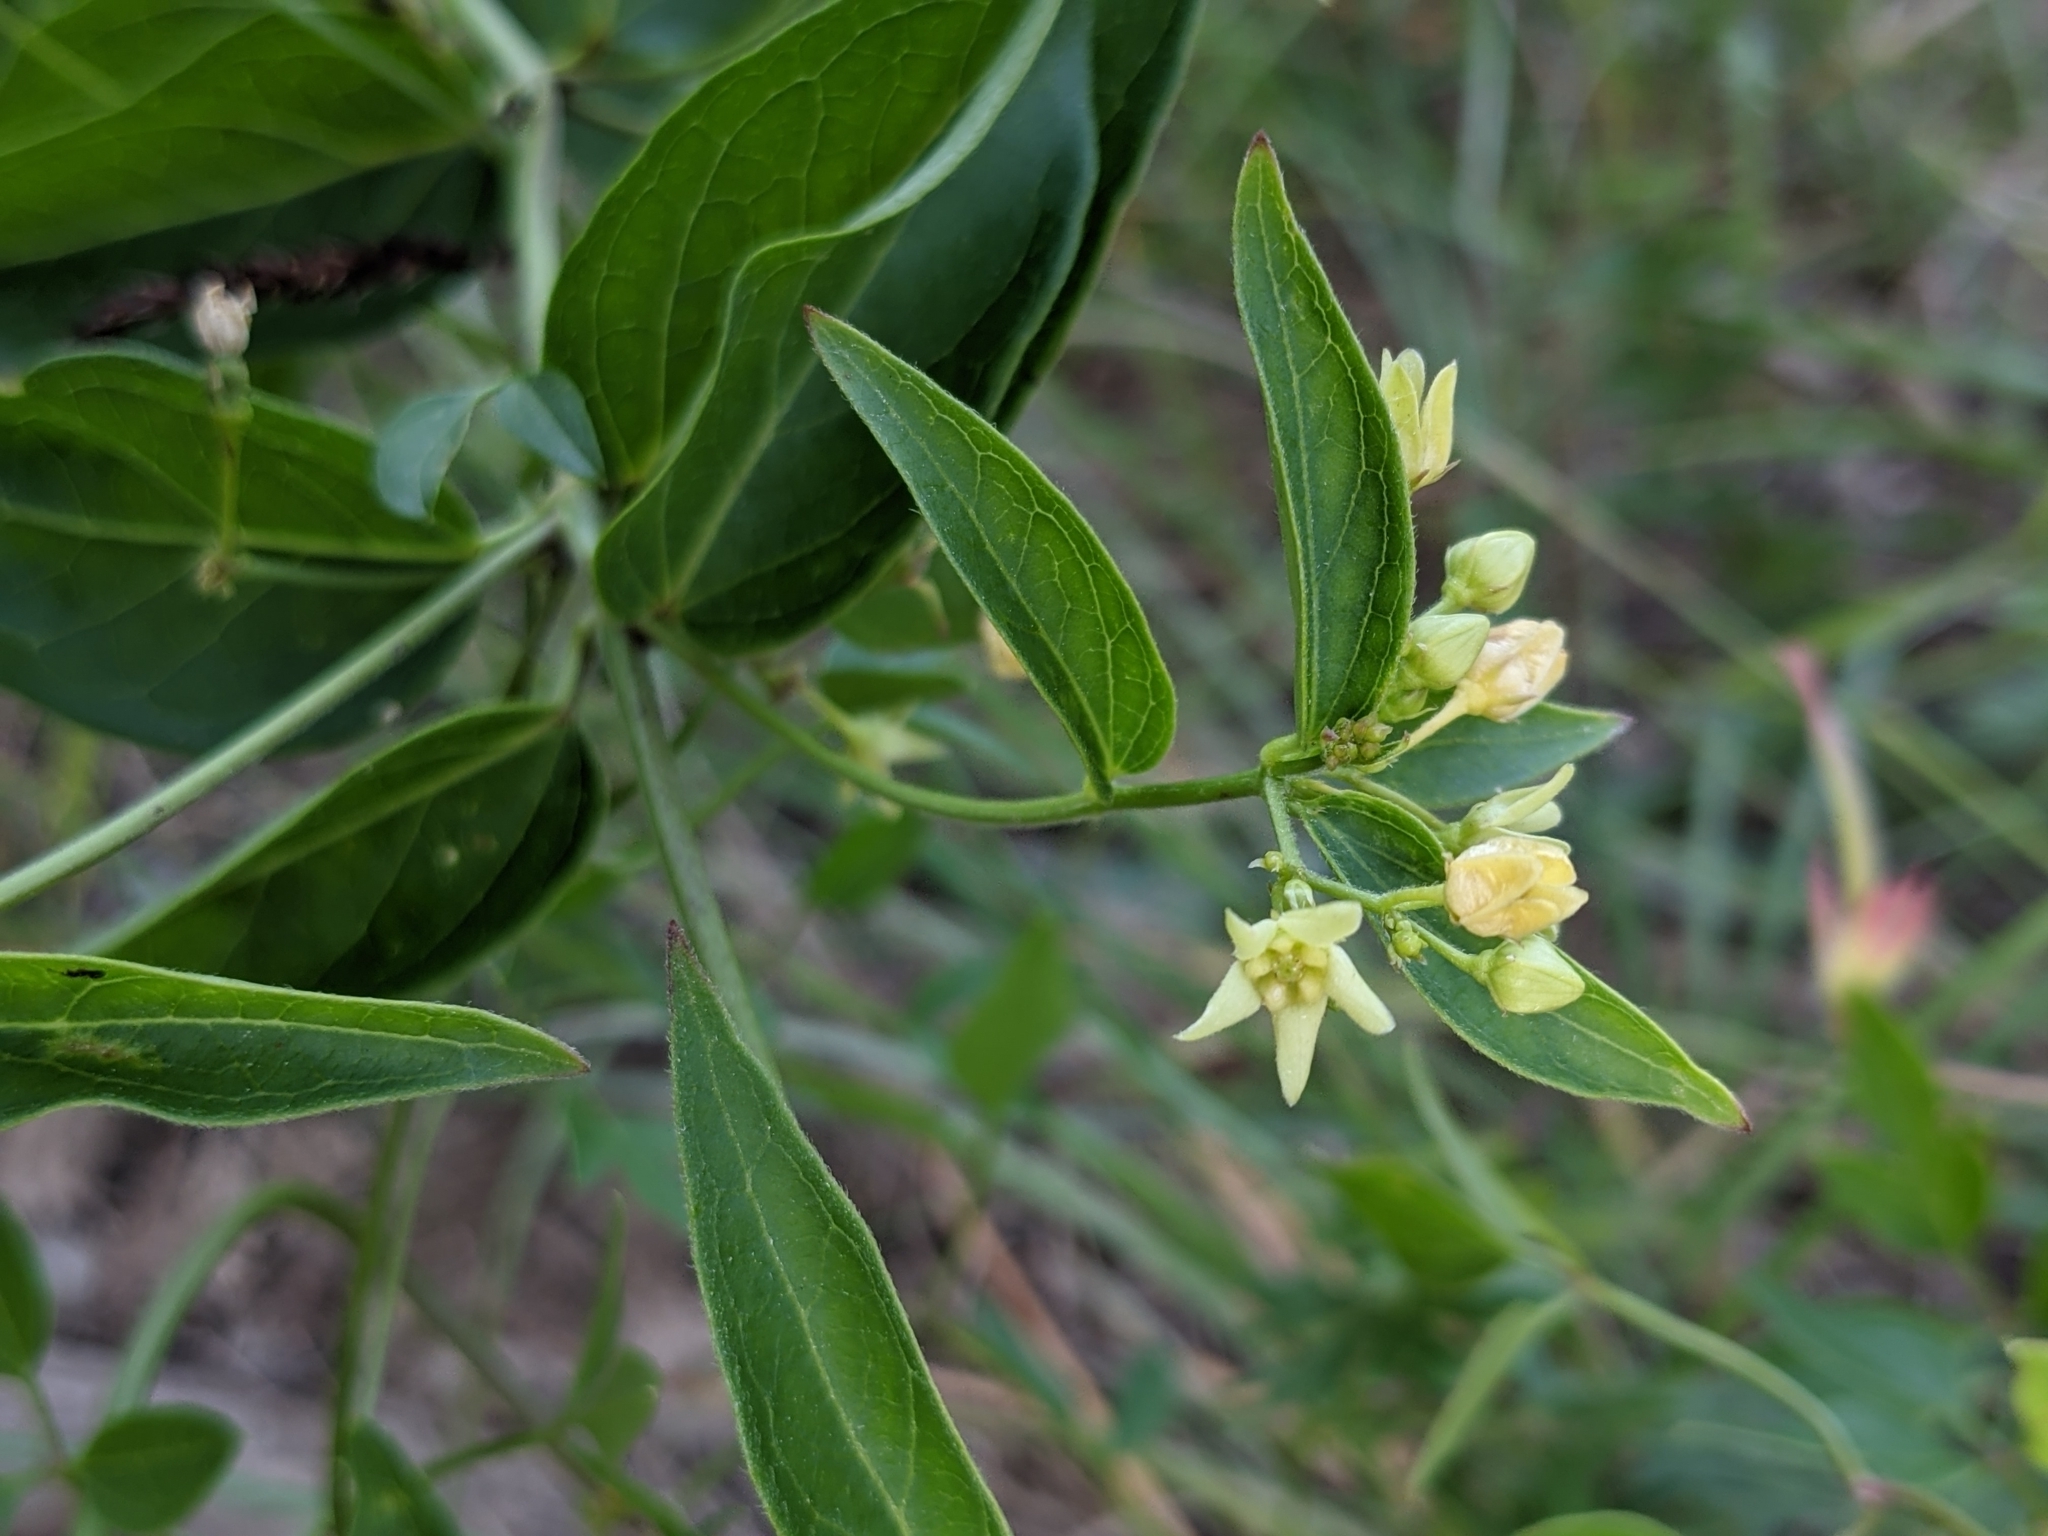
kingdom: Plantae
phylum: Tracheophyta
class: Magnoliopsida
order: Gentianales
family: Apocynaceae
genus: Vincetoxicum
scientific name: Vincetoxicum hirundinaria
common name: White swallowwort
